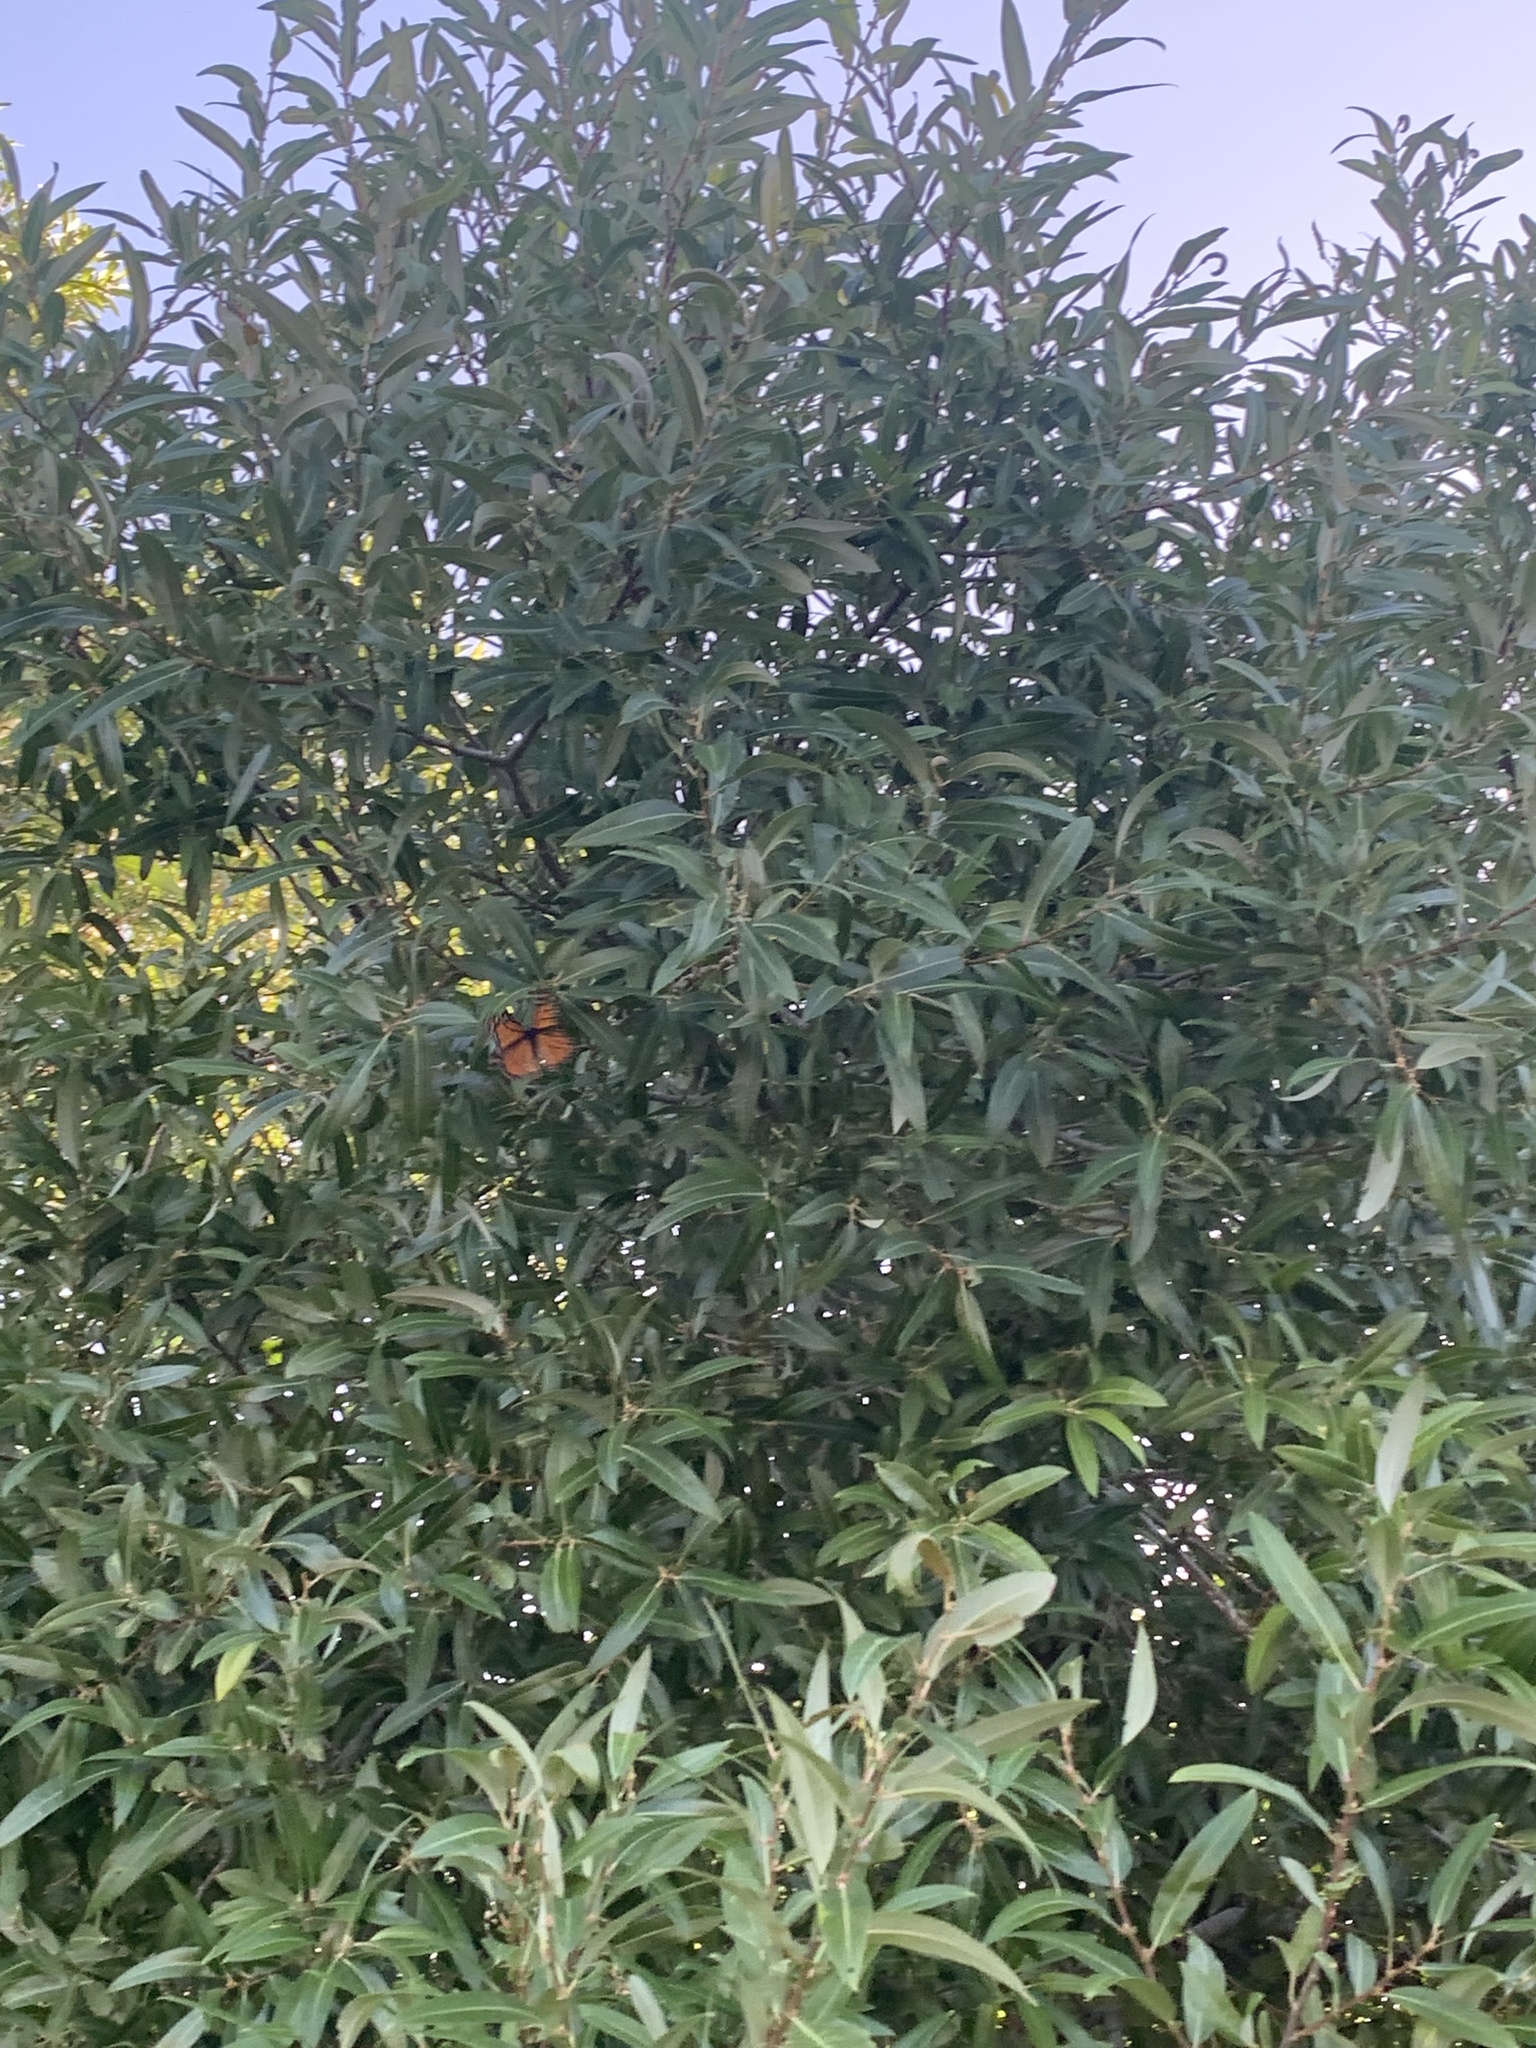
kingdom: Animalia
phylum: Arthropoda
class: Insecta
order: Lepidoptera
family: Nymphalidae
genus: Danaus
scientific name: Danaus plexippus
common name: Monarch
